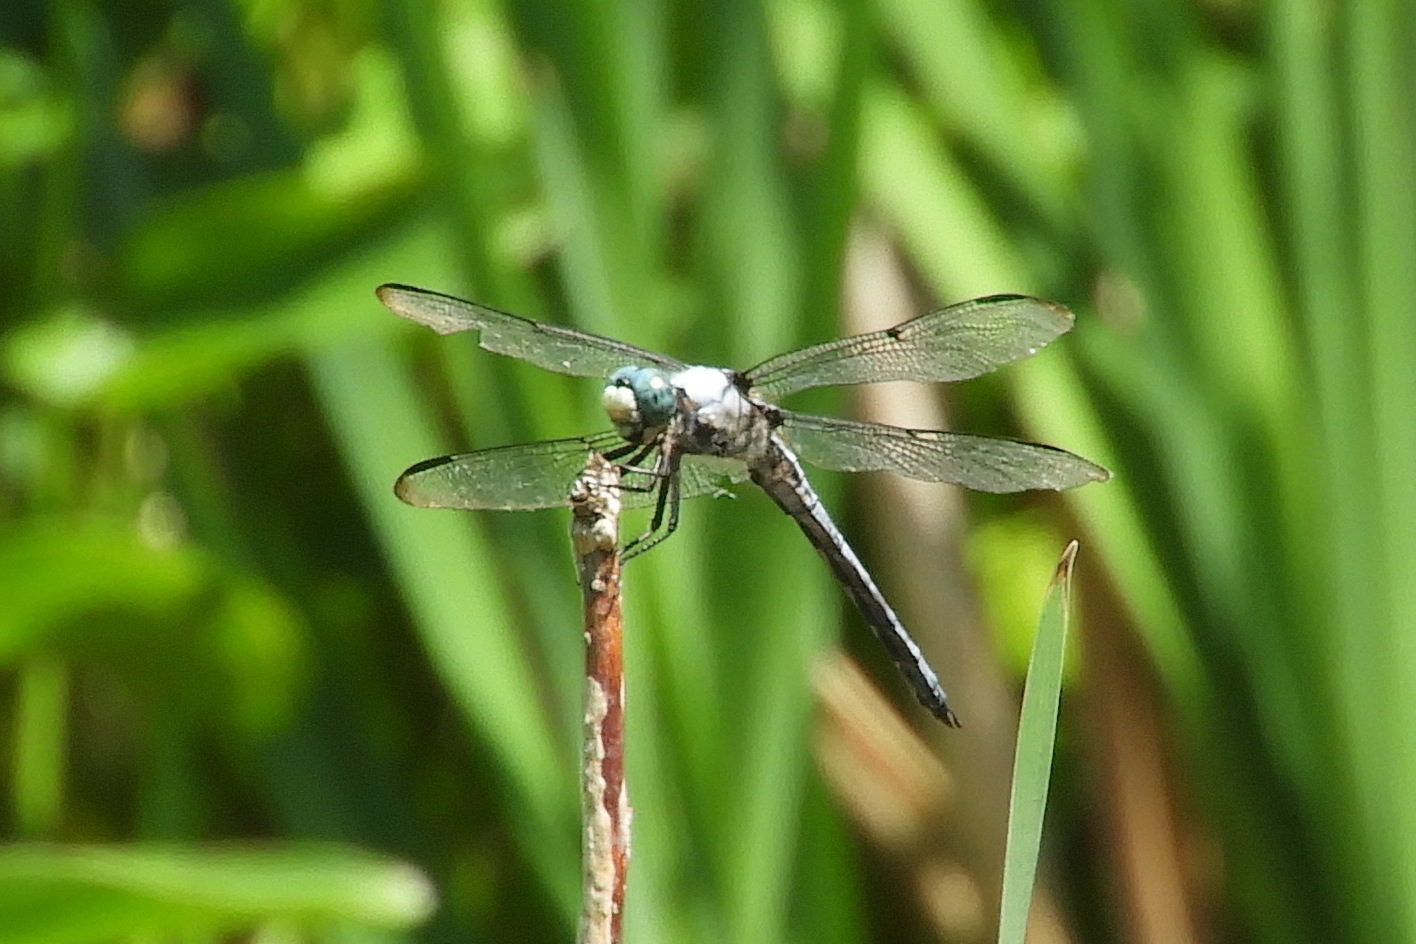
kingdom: Animalia
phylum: Arthropoda
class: Insecta
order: Odonata
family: Libellulidae
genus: Libellula
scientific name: Libellula vibrans
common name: Great blue skimmer
